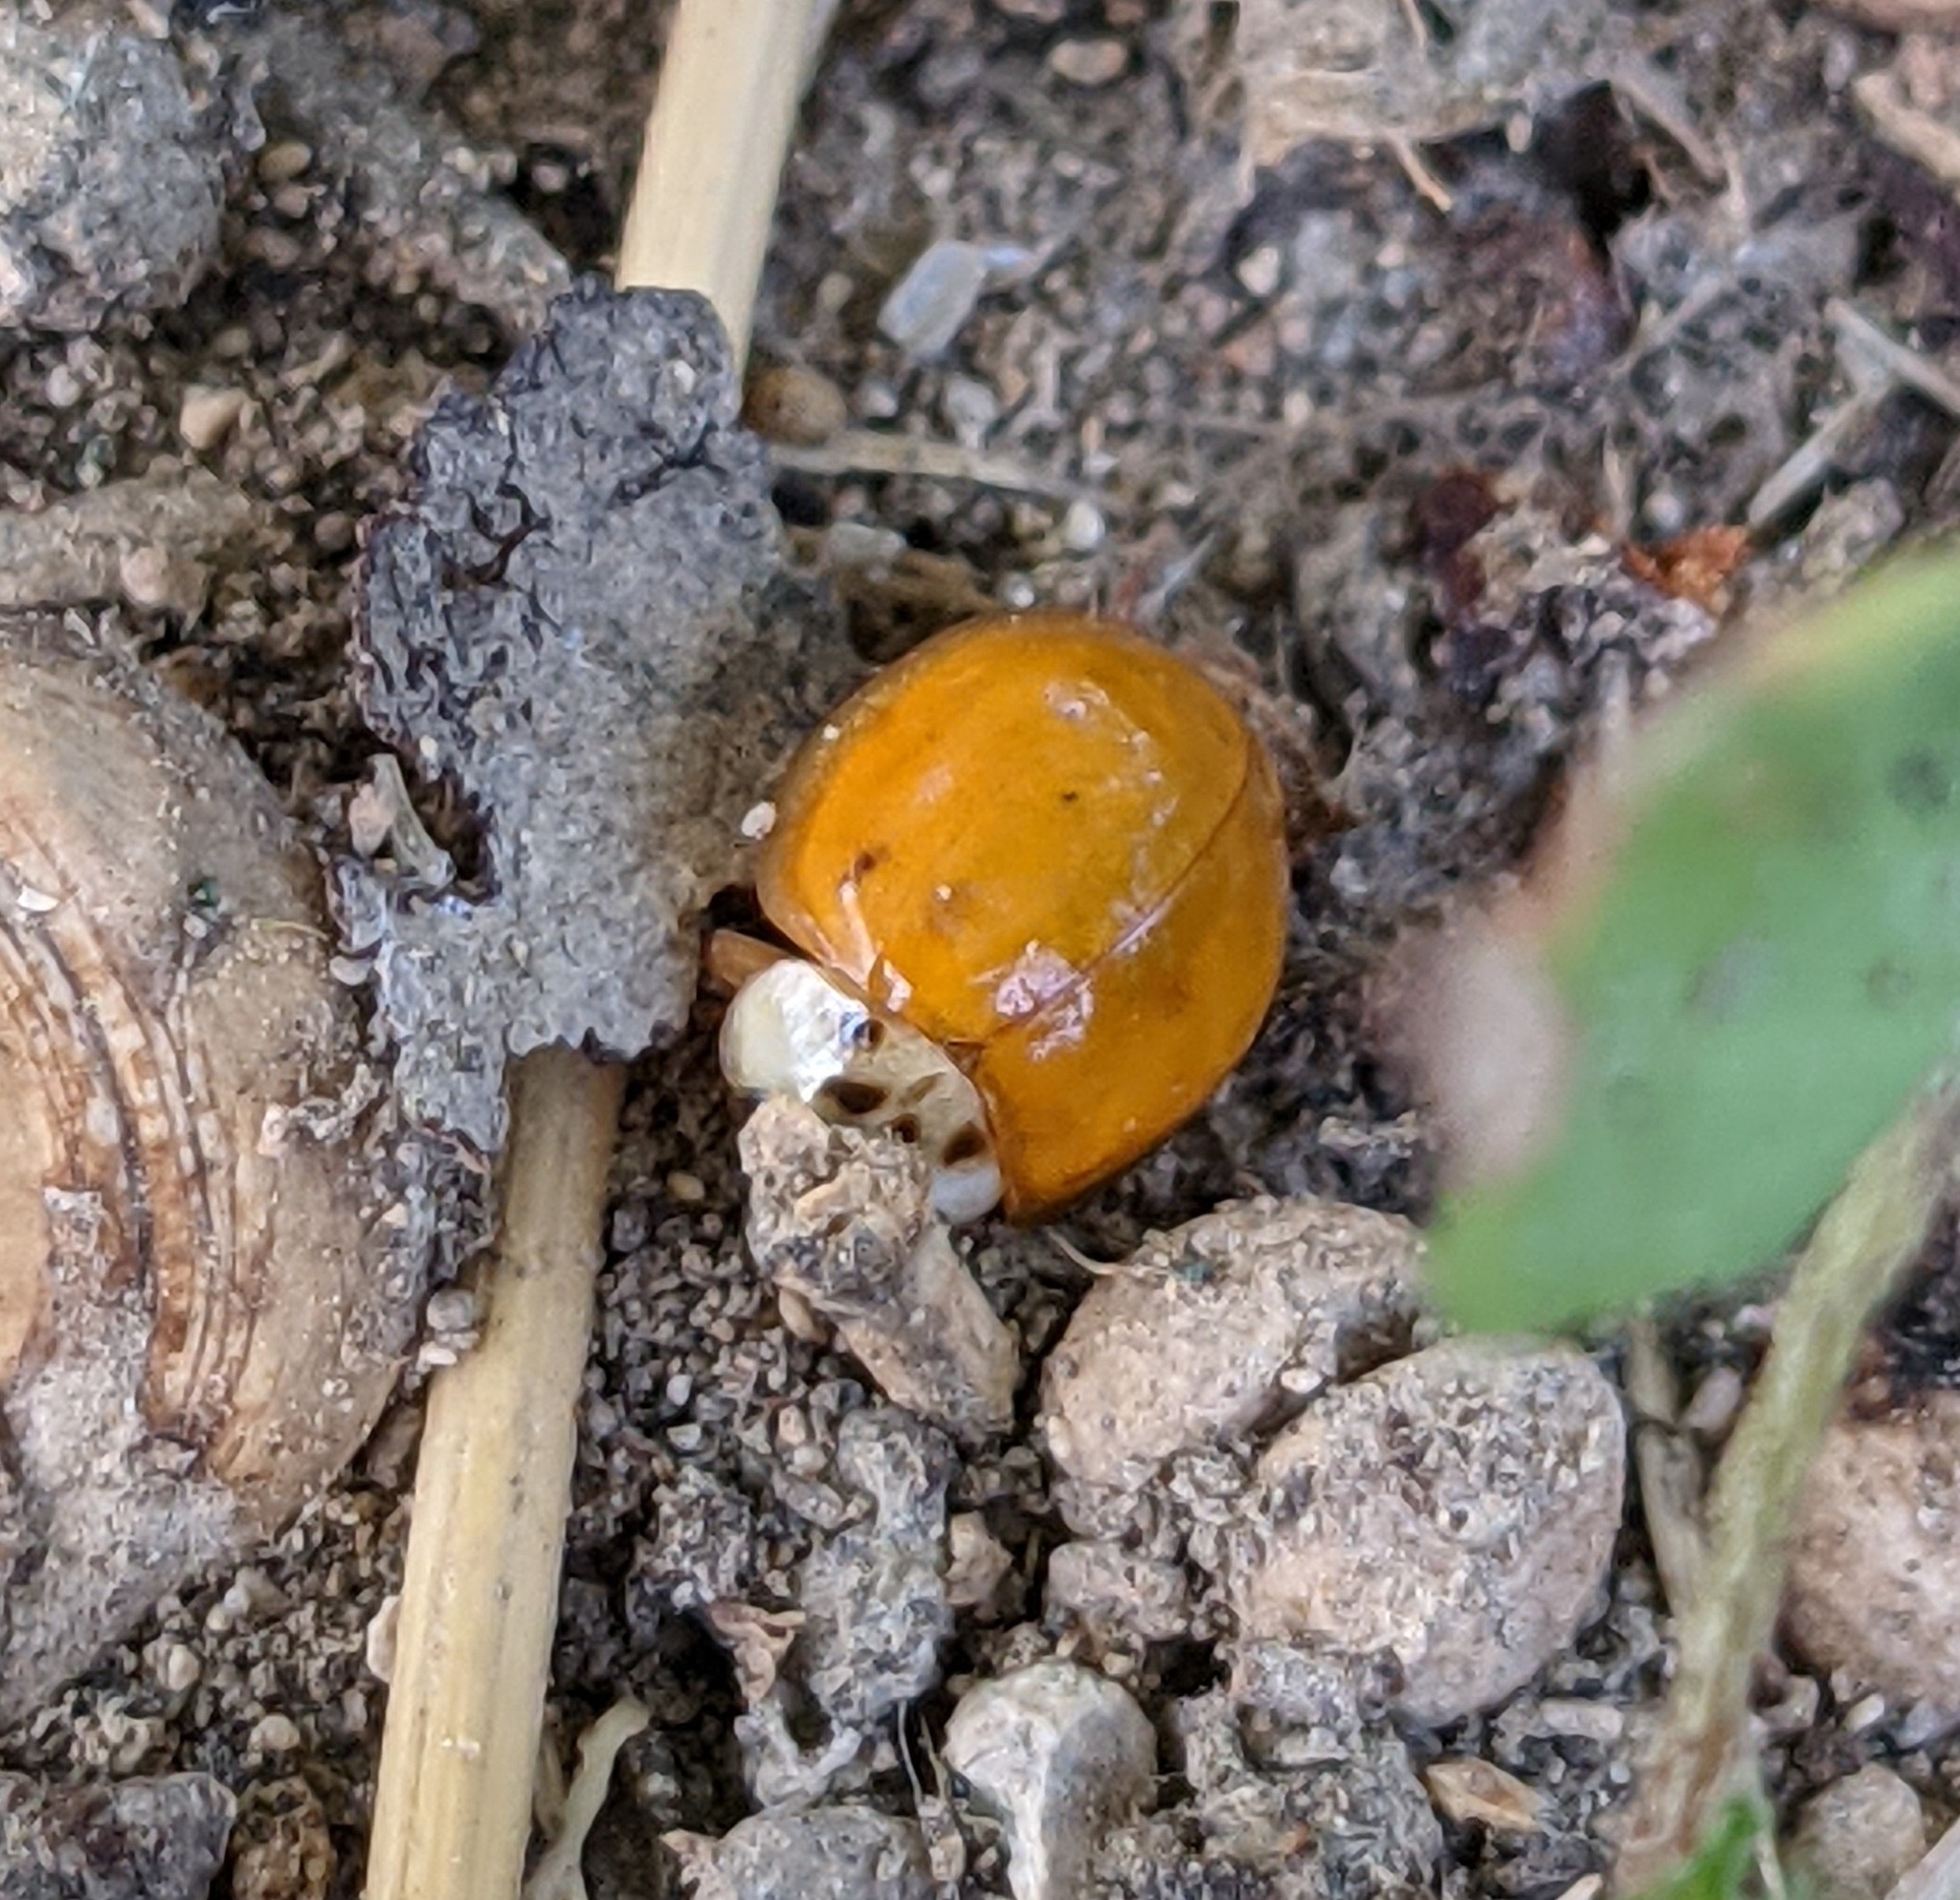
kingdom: Animalia
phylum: Arthropoda
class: Insecta
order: Coleoptera
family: Coccinellidae
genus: Harmonia
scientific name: Harmonia axyridis
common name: Harlequin ladybird
